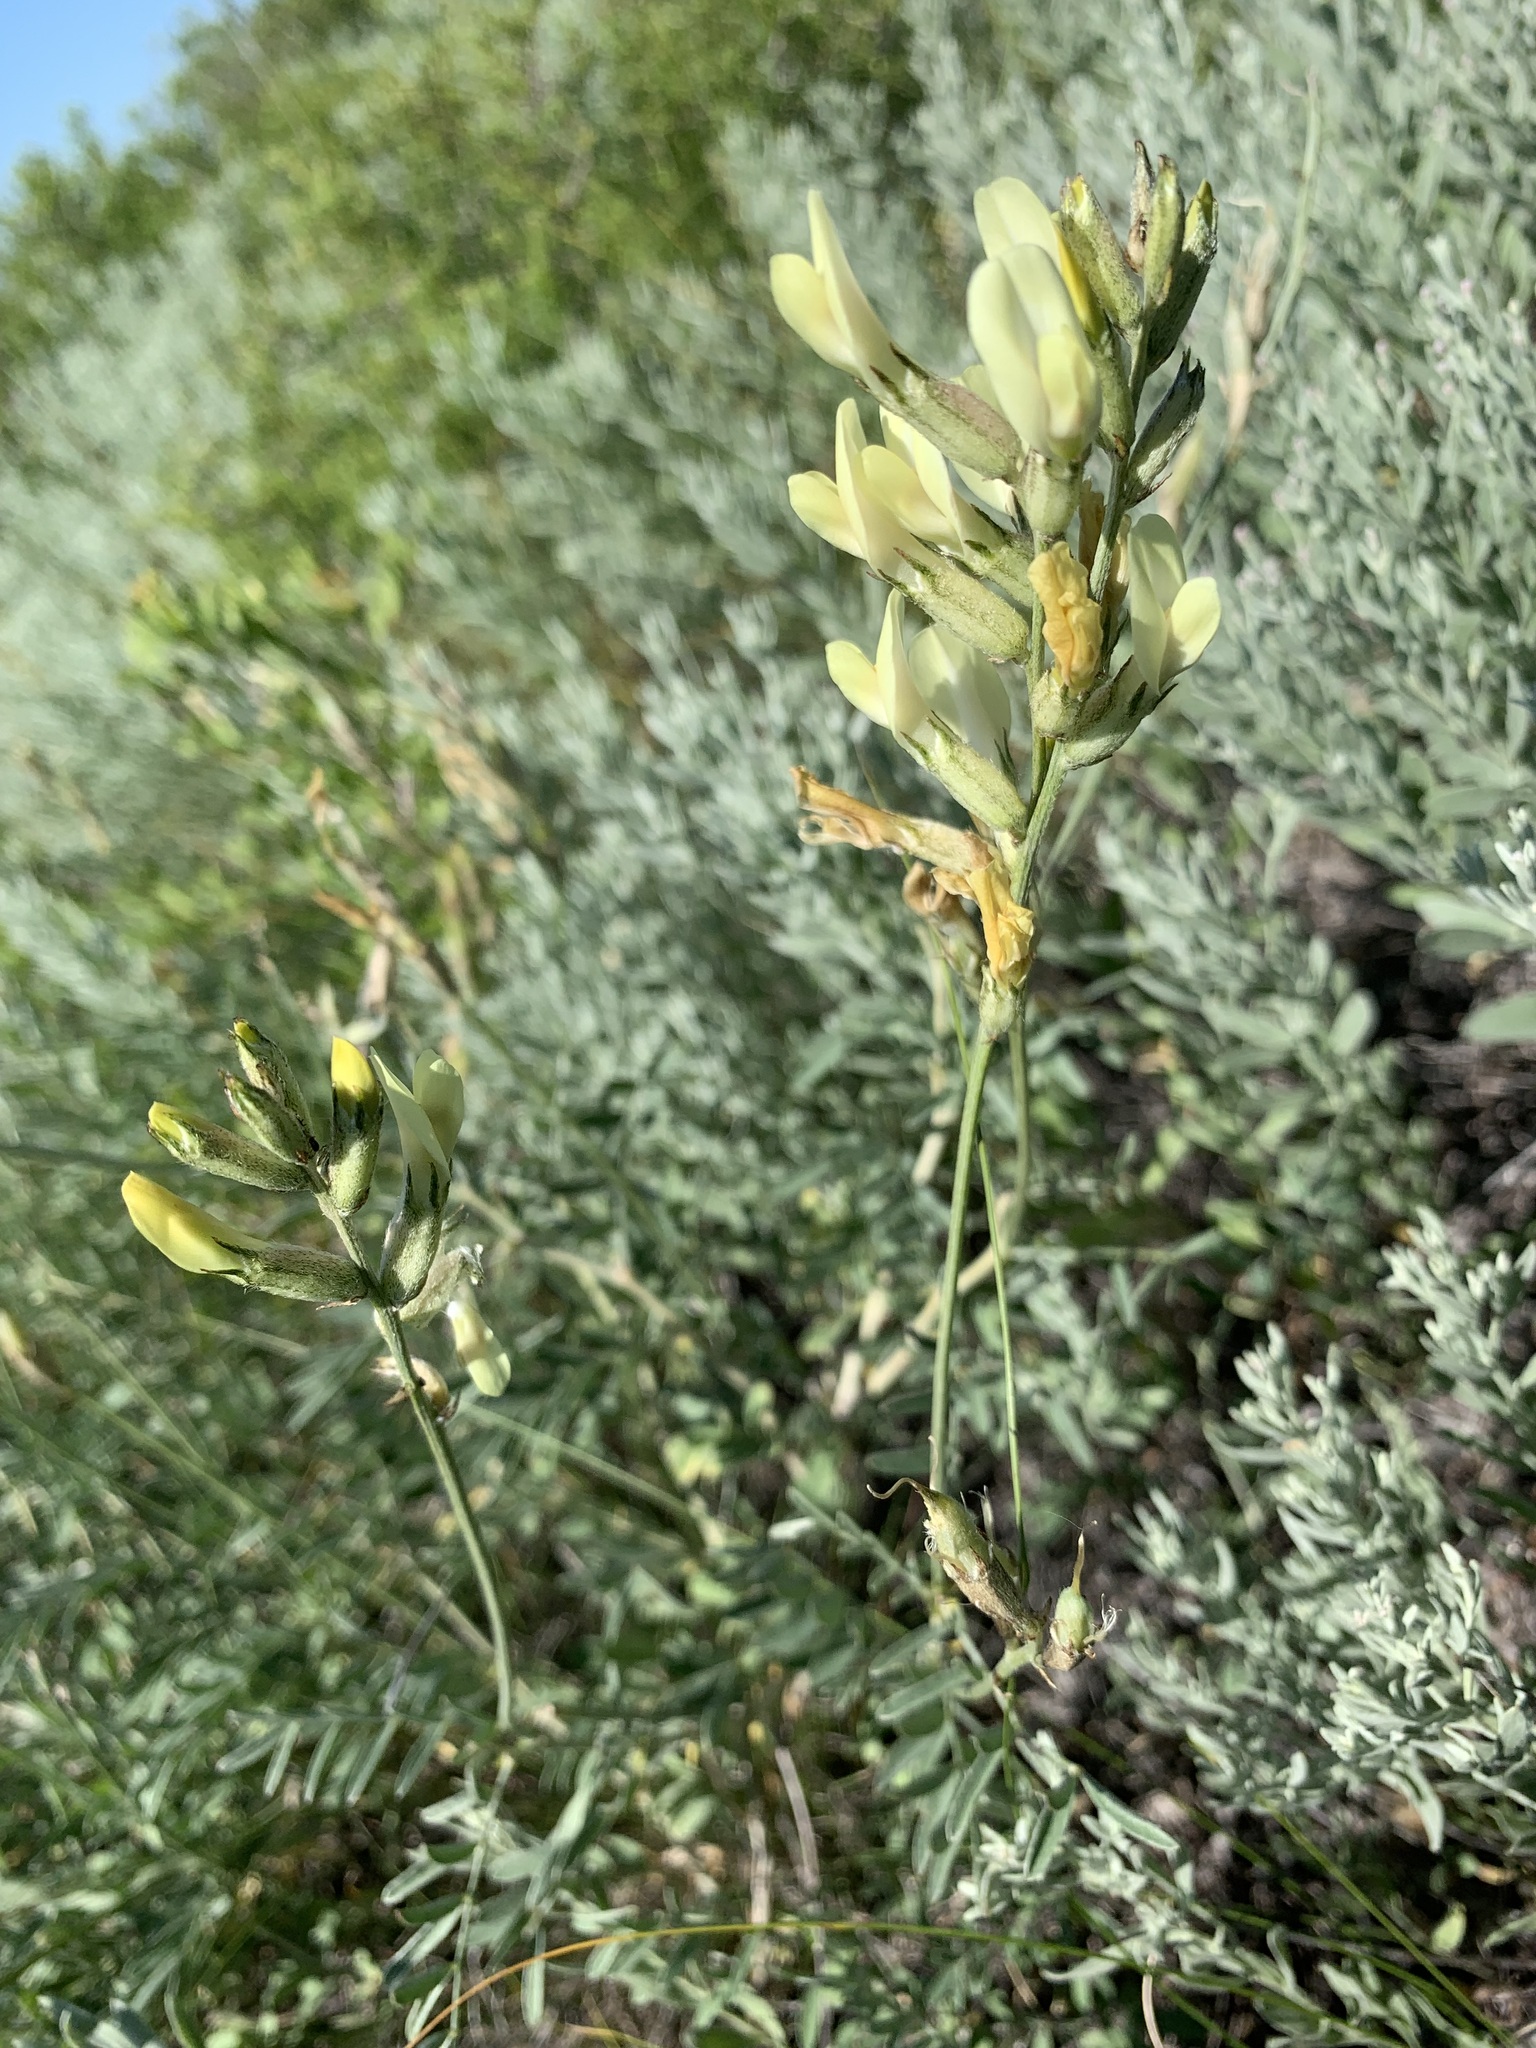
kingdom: Plantae
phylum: Tracheophyta
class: Magnoliopsida
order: Fabales
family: Fabaceae
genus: Astragalus
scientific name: Astragalus storozhevae
